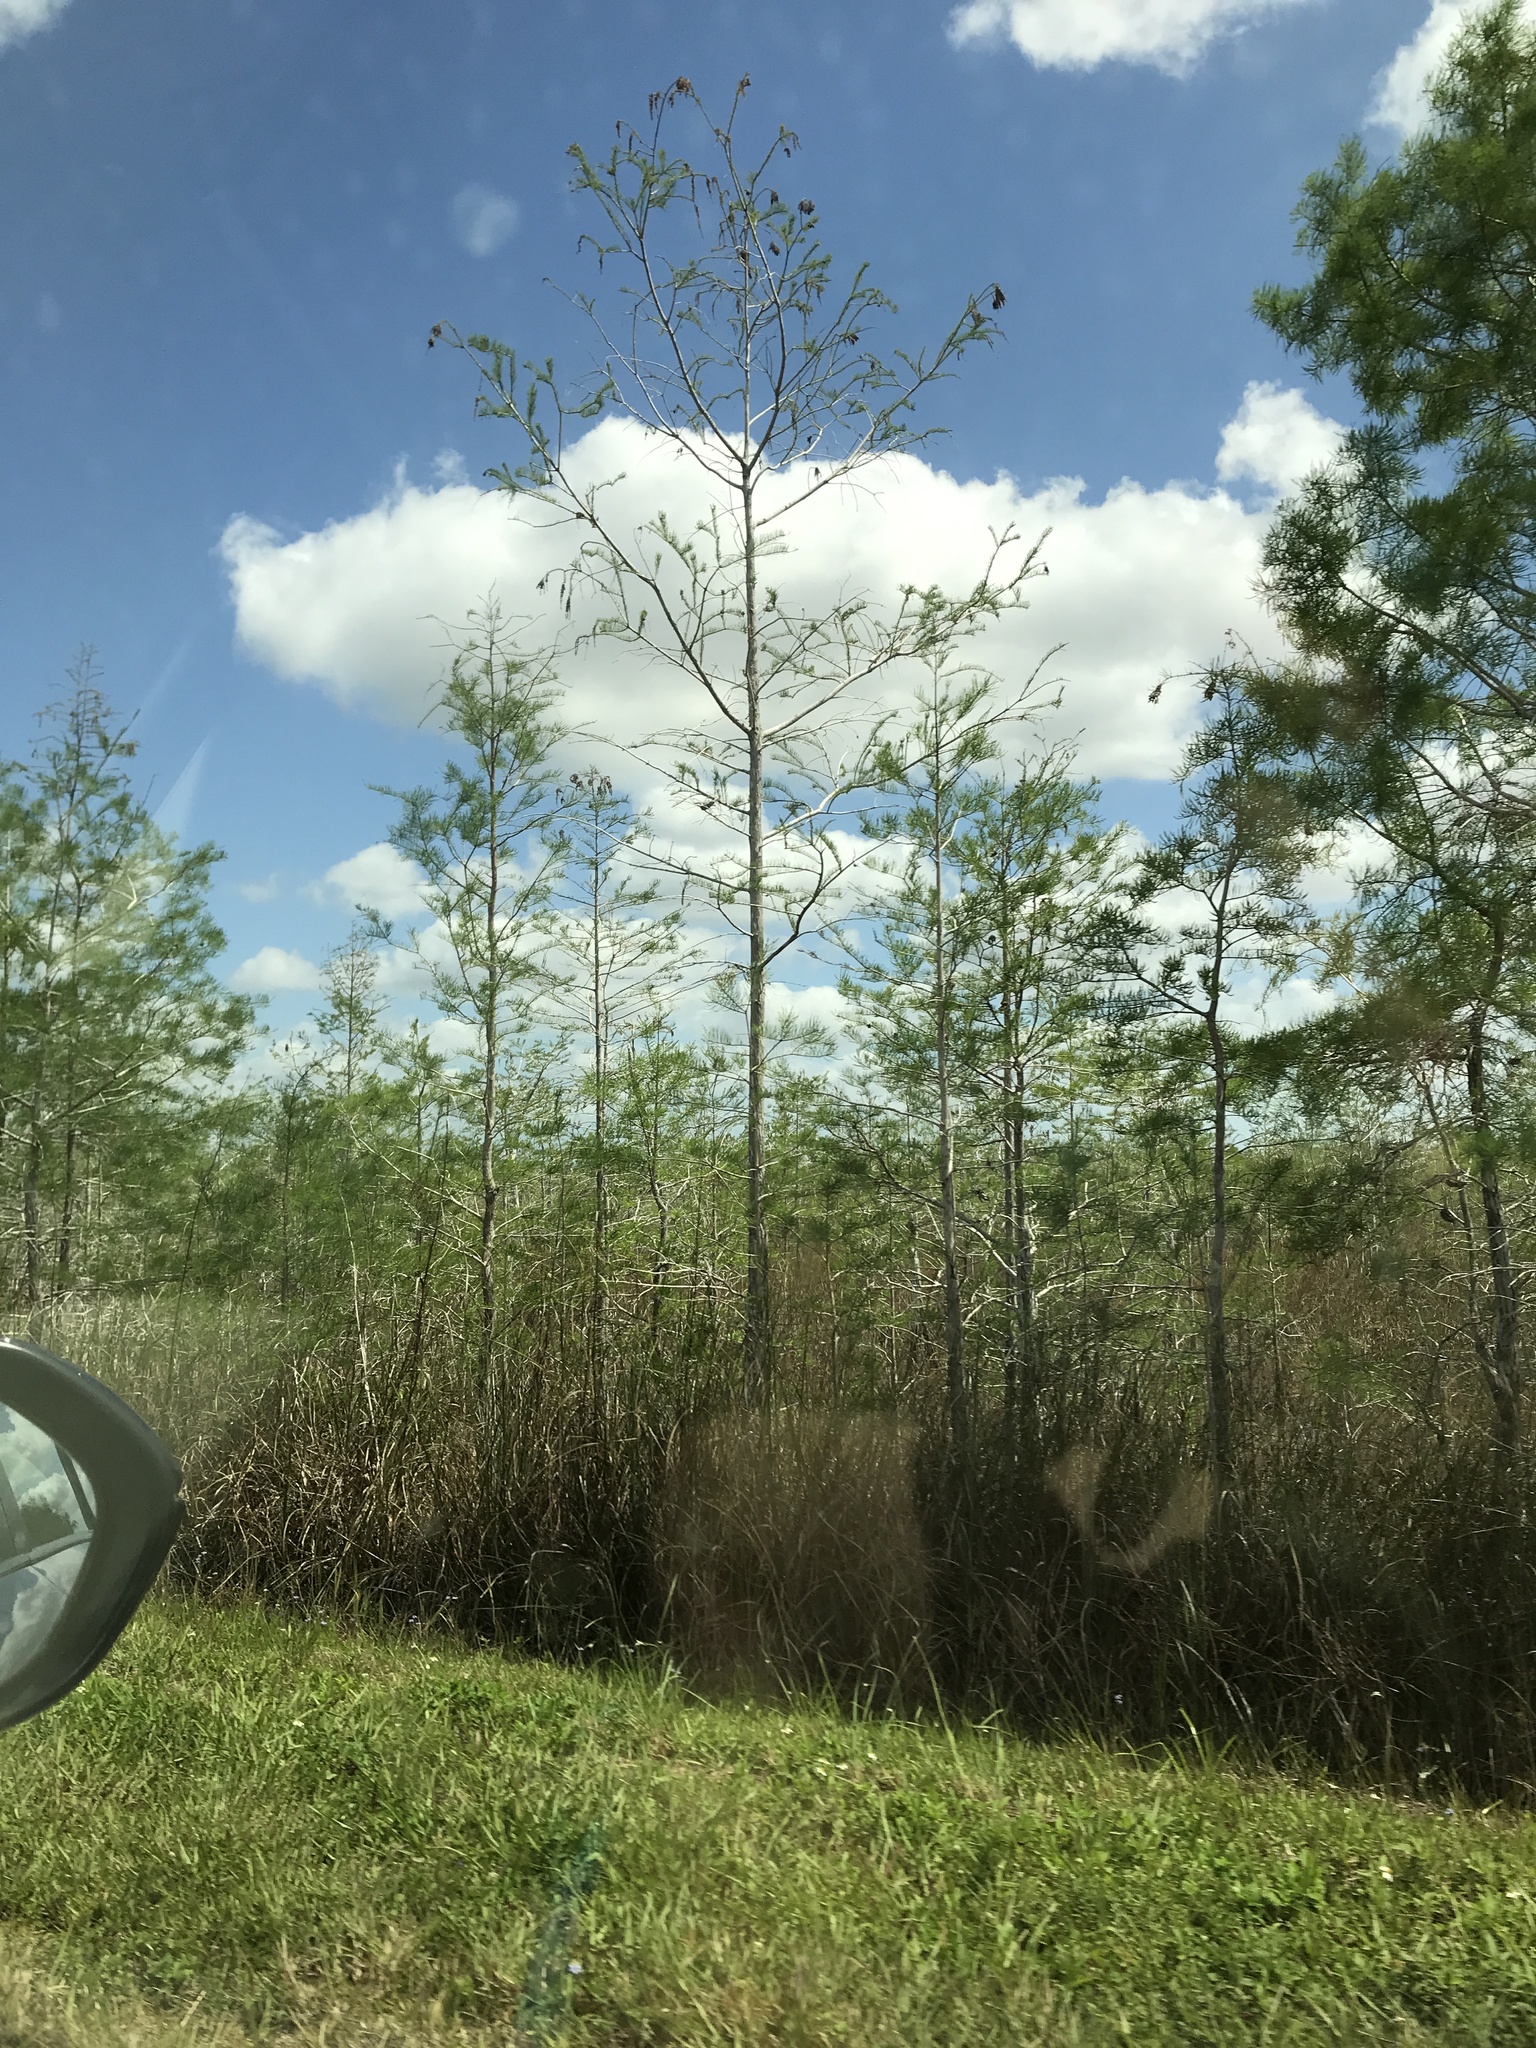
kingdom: Plantae
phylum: Tracheophyta
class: Pinopsida
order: Pinales
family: Cupressaceae
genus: Taxodium
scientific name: Taxodium distichum
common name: Bald cypress
